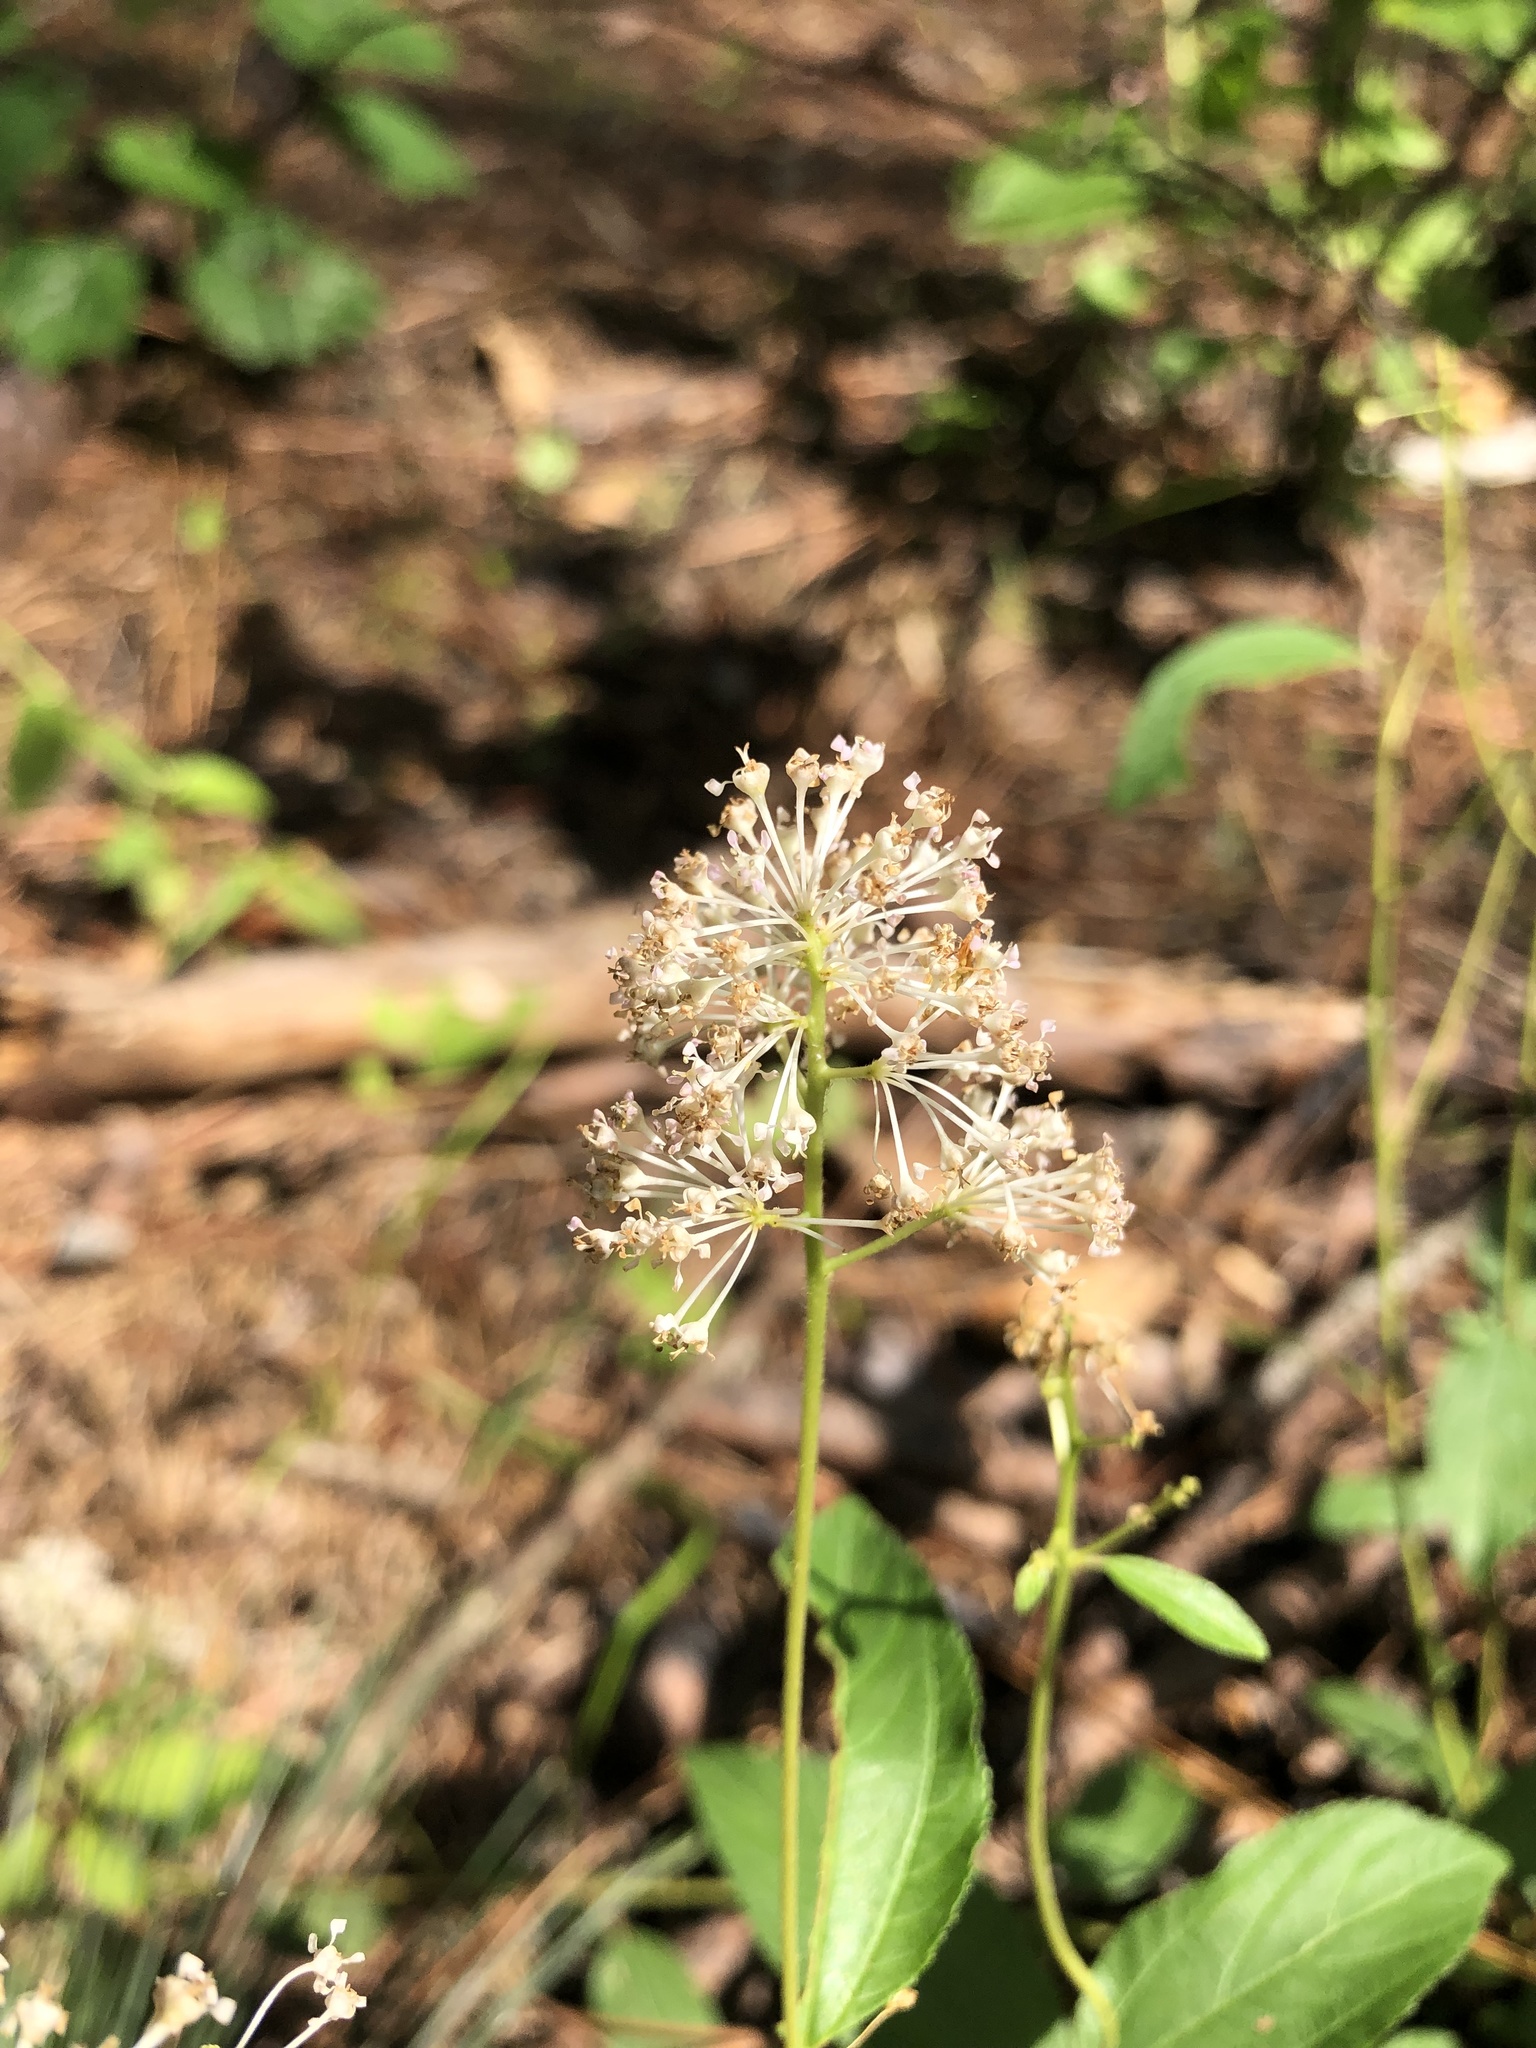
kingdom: Plantae
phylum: Tracheophyta
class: Magnoliopsida
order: Rosales
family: Rhamnaceae
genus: Ceanothus
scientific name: Ceanothus americanus
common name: Redroot
